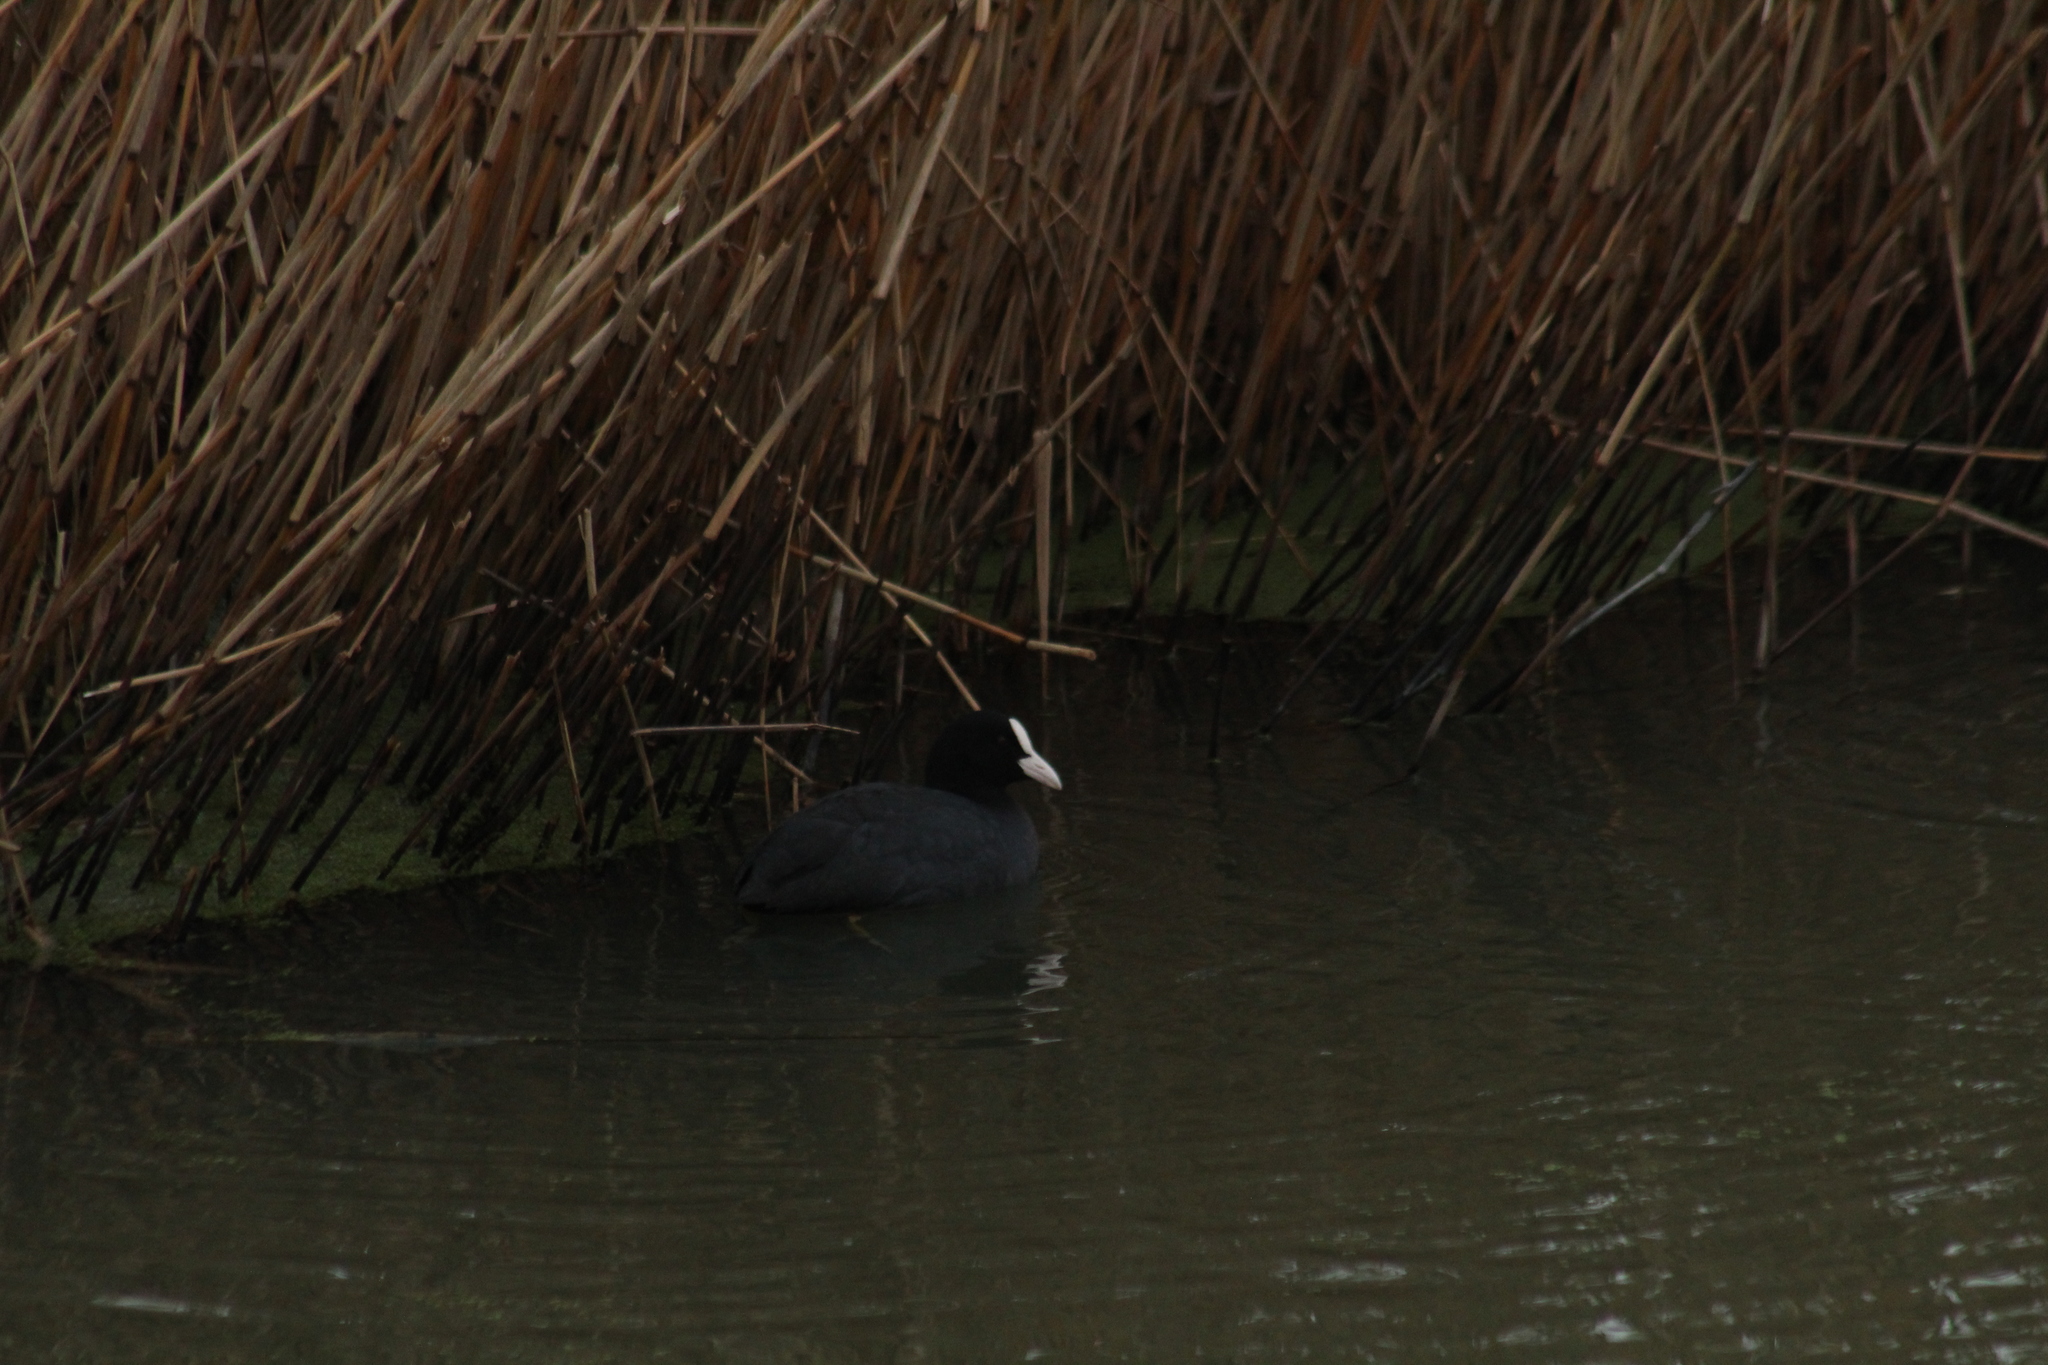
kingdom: Animalia
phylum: Chordata
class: Aves
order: Gruiformes
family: Rallidae
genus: Fulica
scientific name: Fulica atra
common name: Eurasian coot
